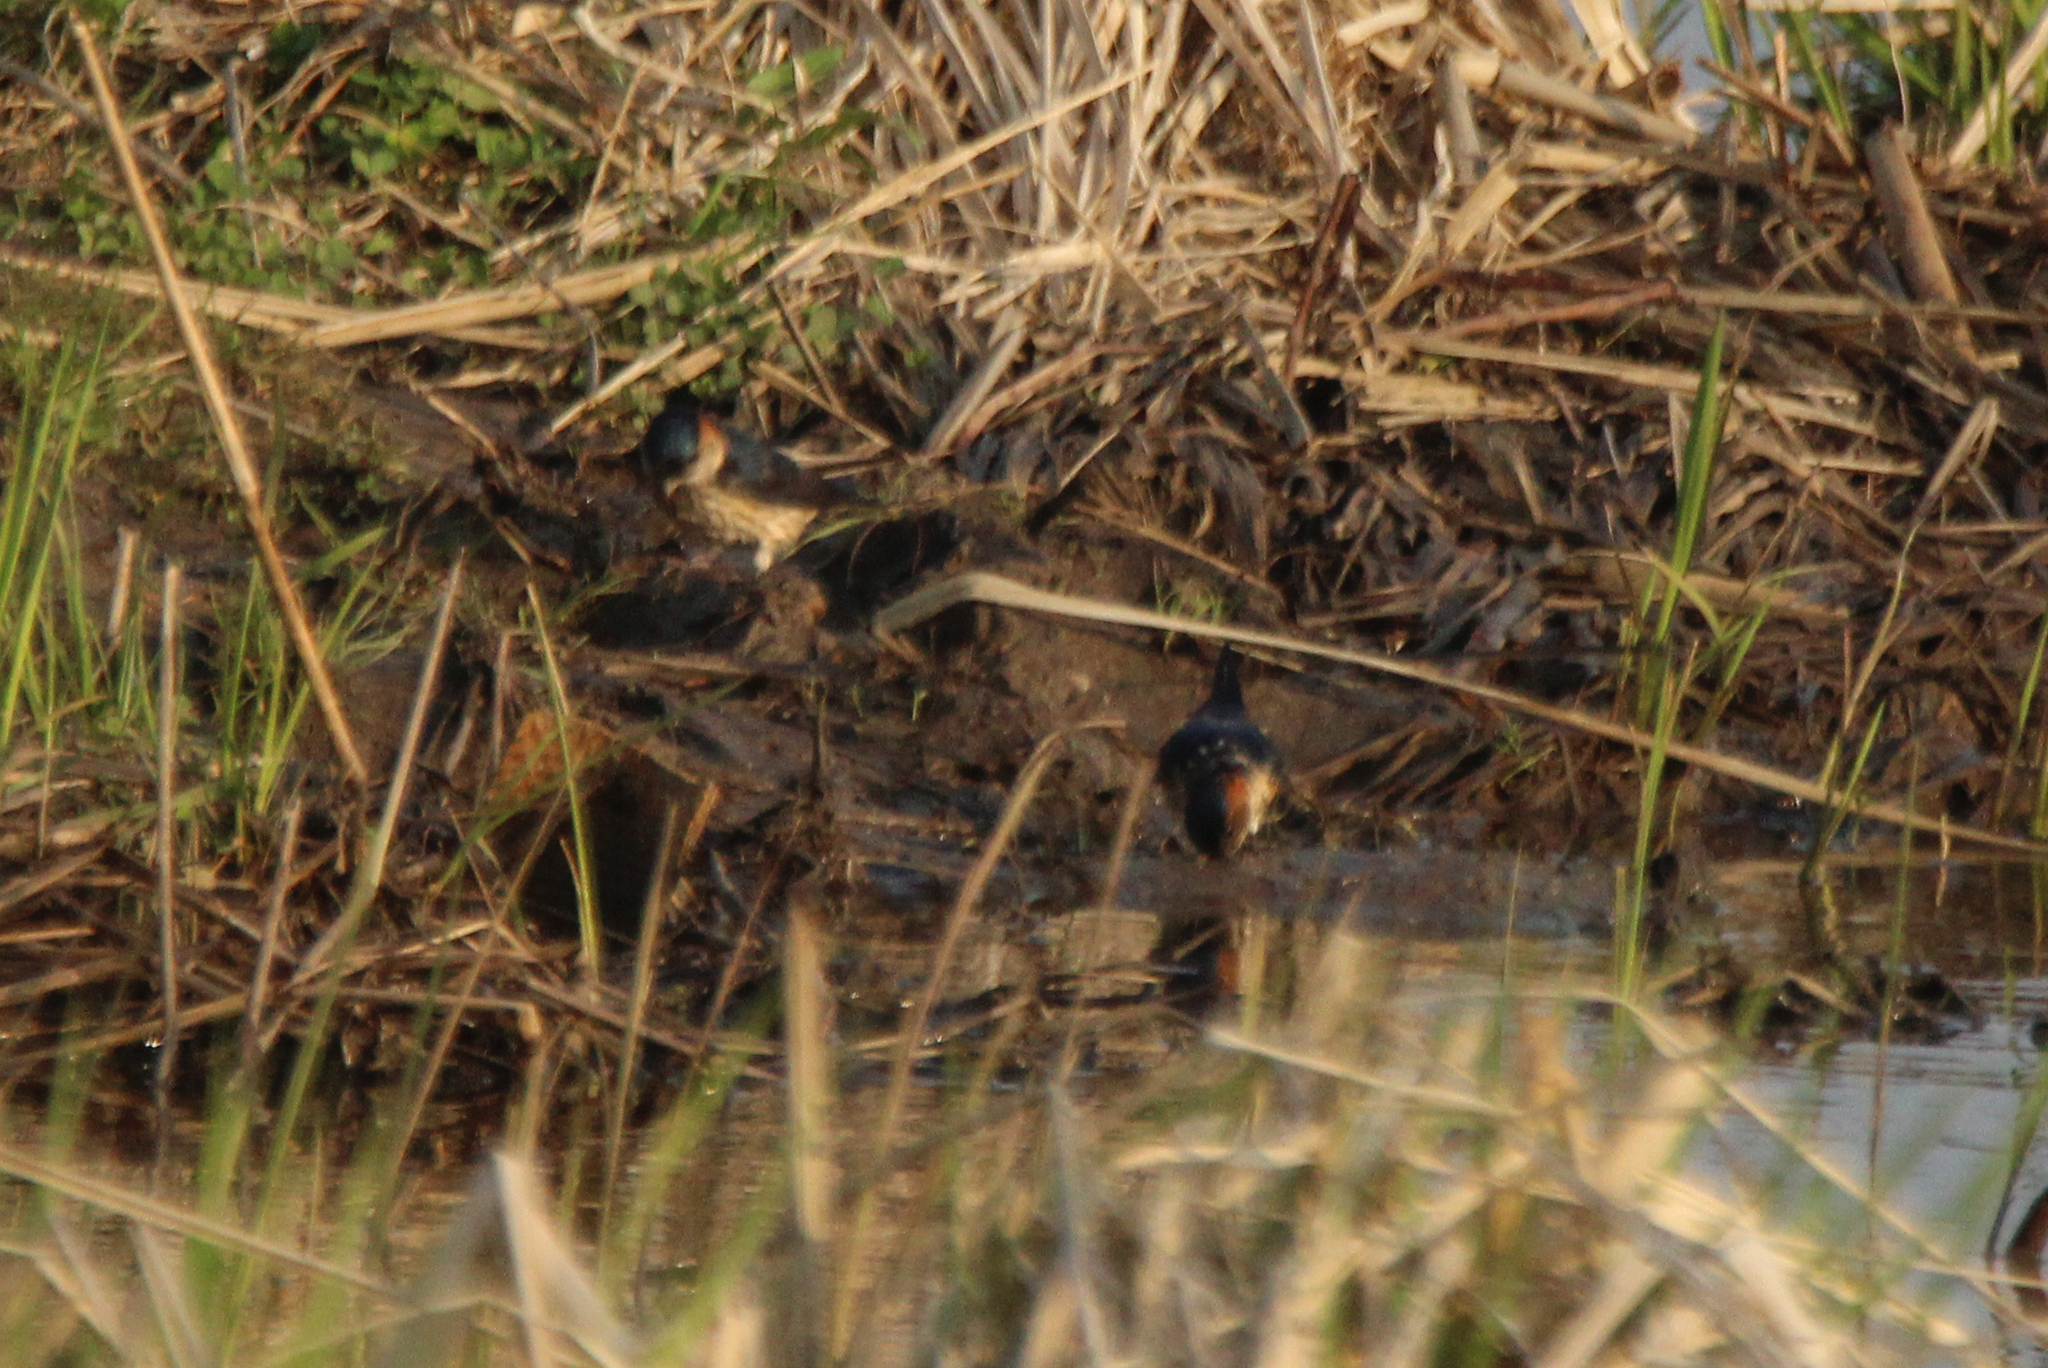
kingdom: Animalia
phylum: Chordata
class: Aves
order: Passeriformes
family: Hirundinidae
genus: Cecropis
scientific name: Cecropis daurica
